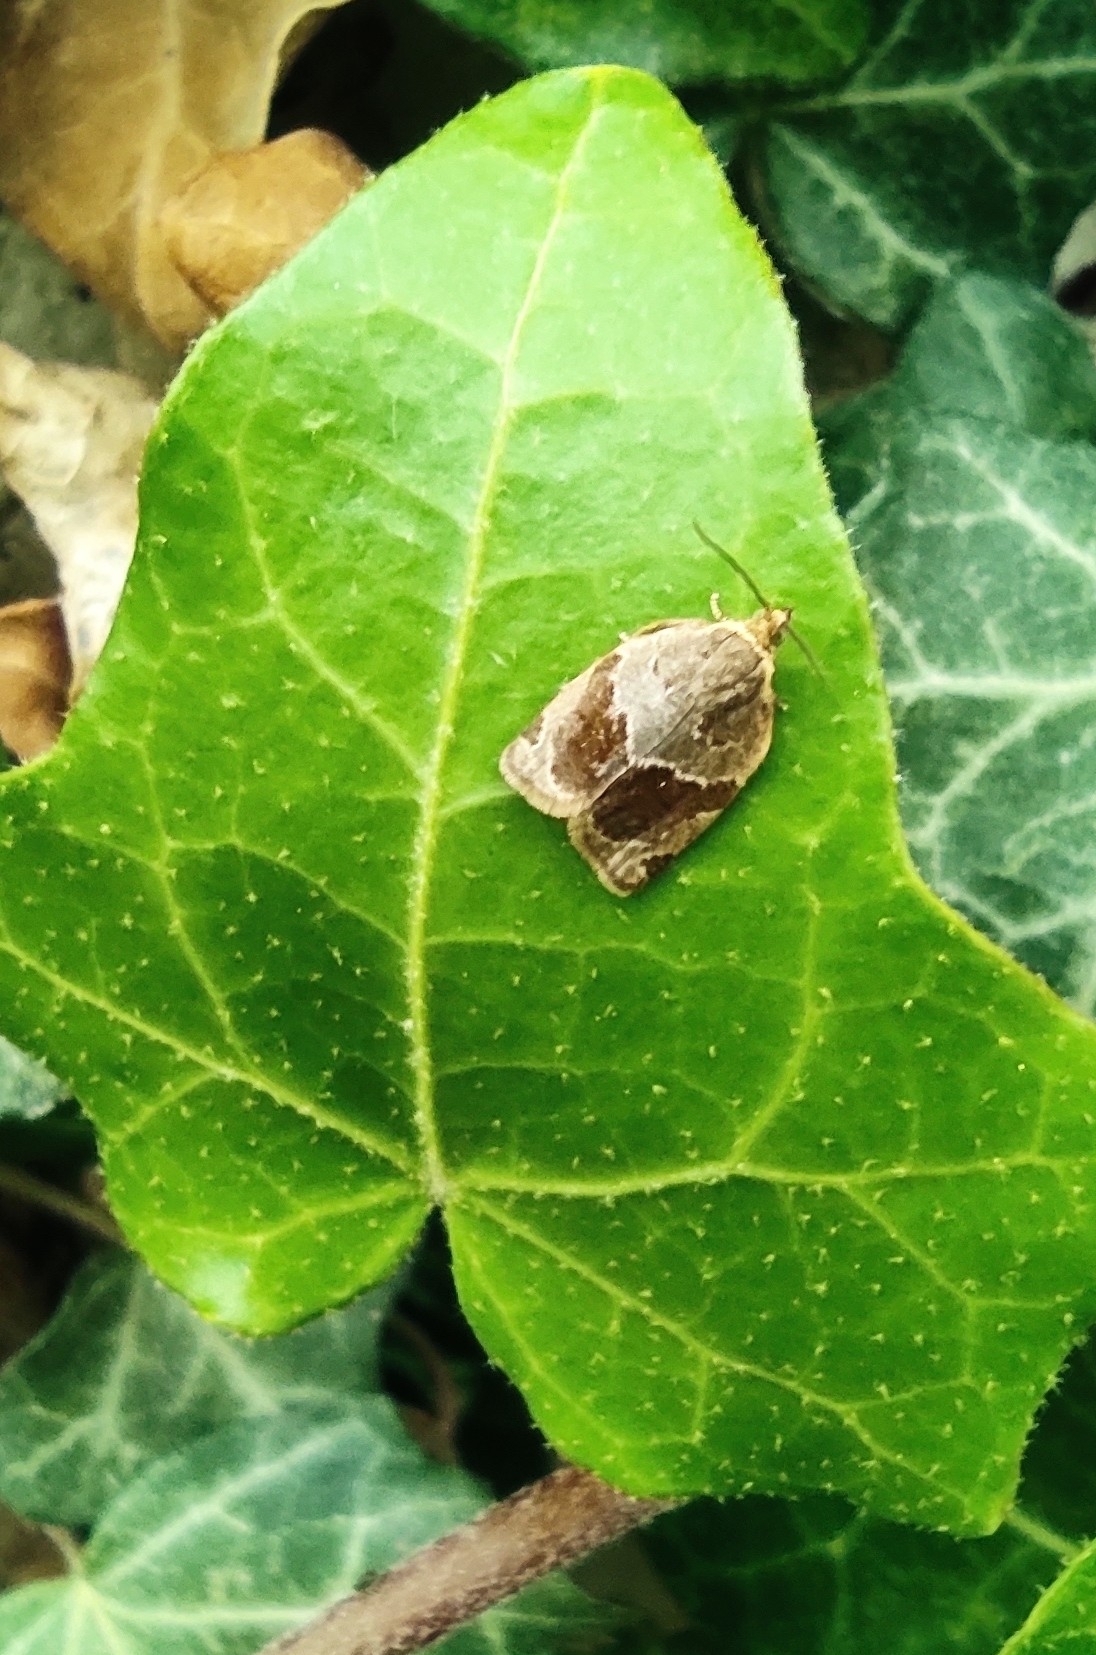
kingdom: Animalia
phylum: Arthropoda
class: Insecta
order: Lepidoptera
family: Tortricidae
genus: Clepsis
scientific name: Clepsis dumicolana
